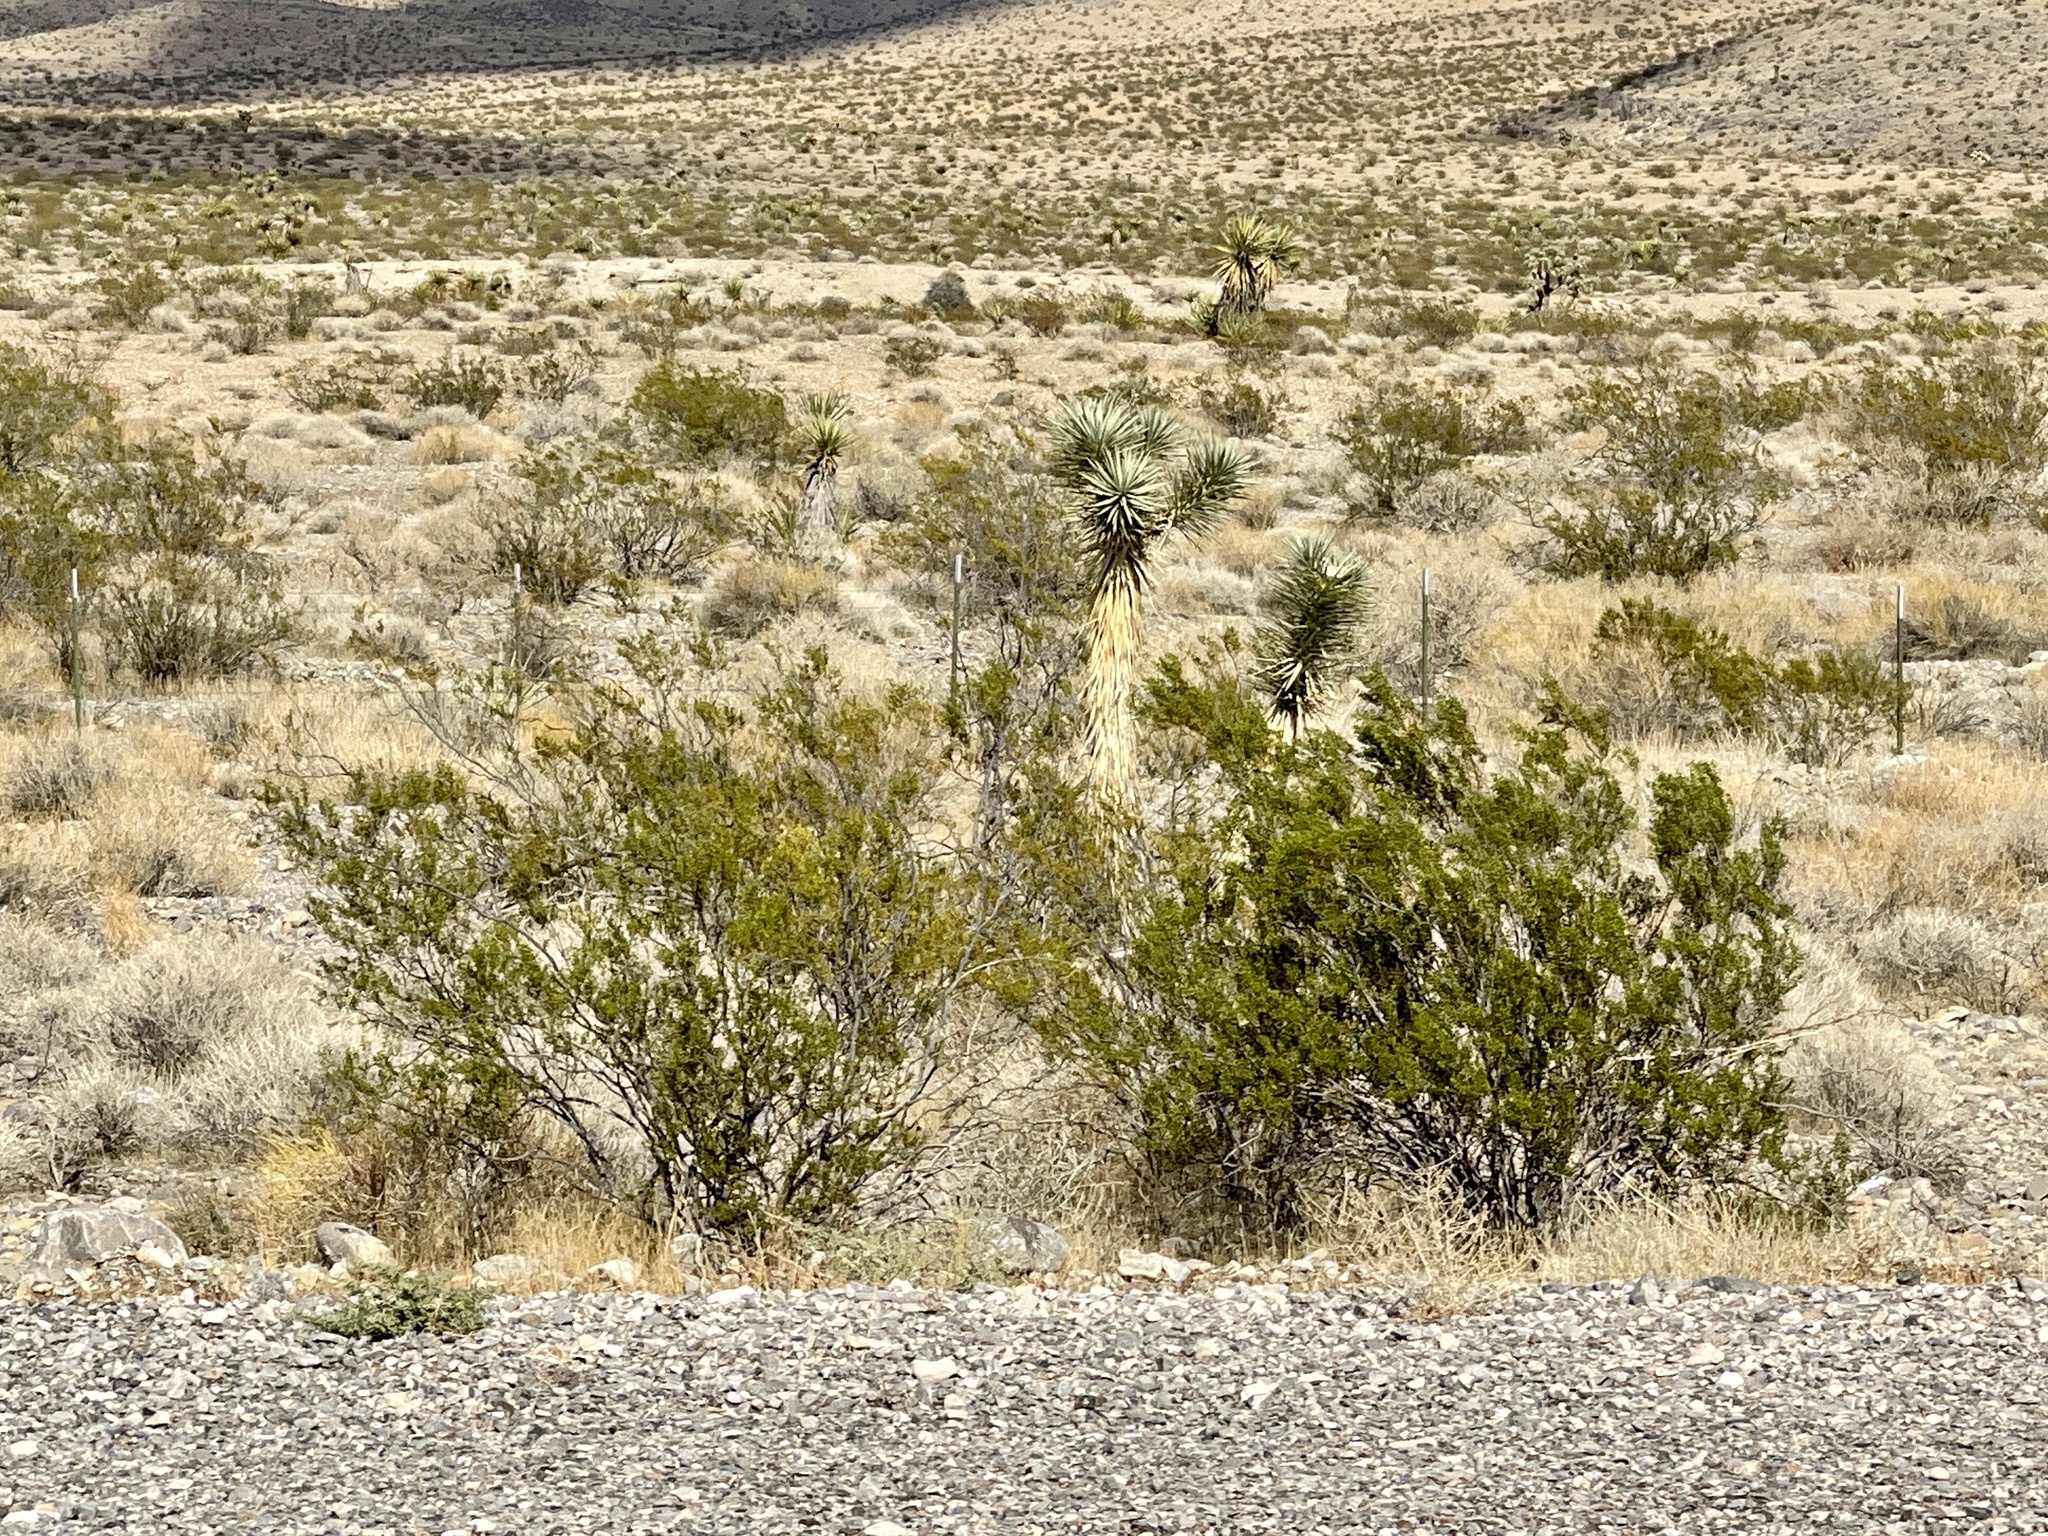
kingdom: Plantae
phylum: Tracheophyta
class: Magnoliopsida
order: Zygophyllales
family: Zygophyllaceae
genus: Larrea
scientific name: Larrea tridentata
